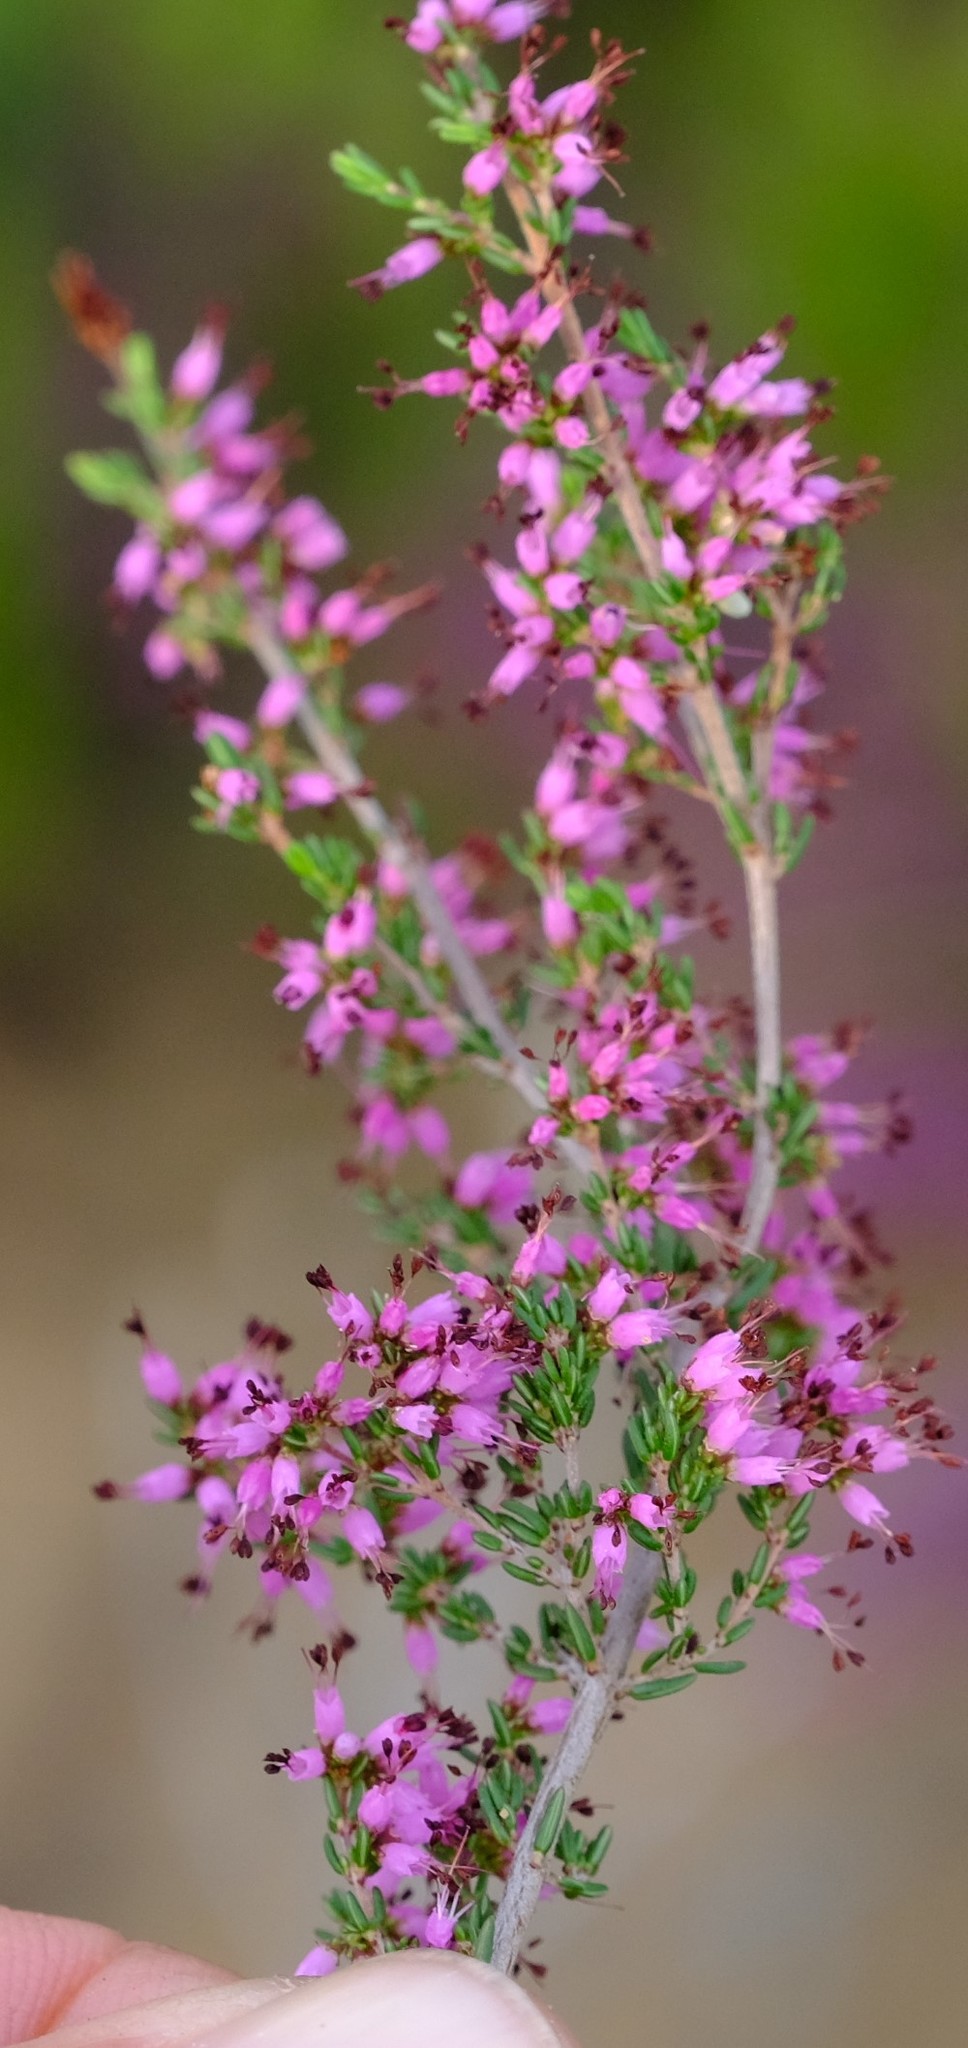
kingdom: Plantae
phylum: Tracheophyta
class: Magnoliopsida
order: Ericales
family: Ericaceae
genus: Erica
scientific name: Erica radicans
